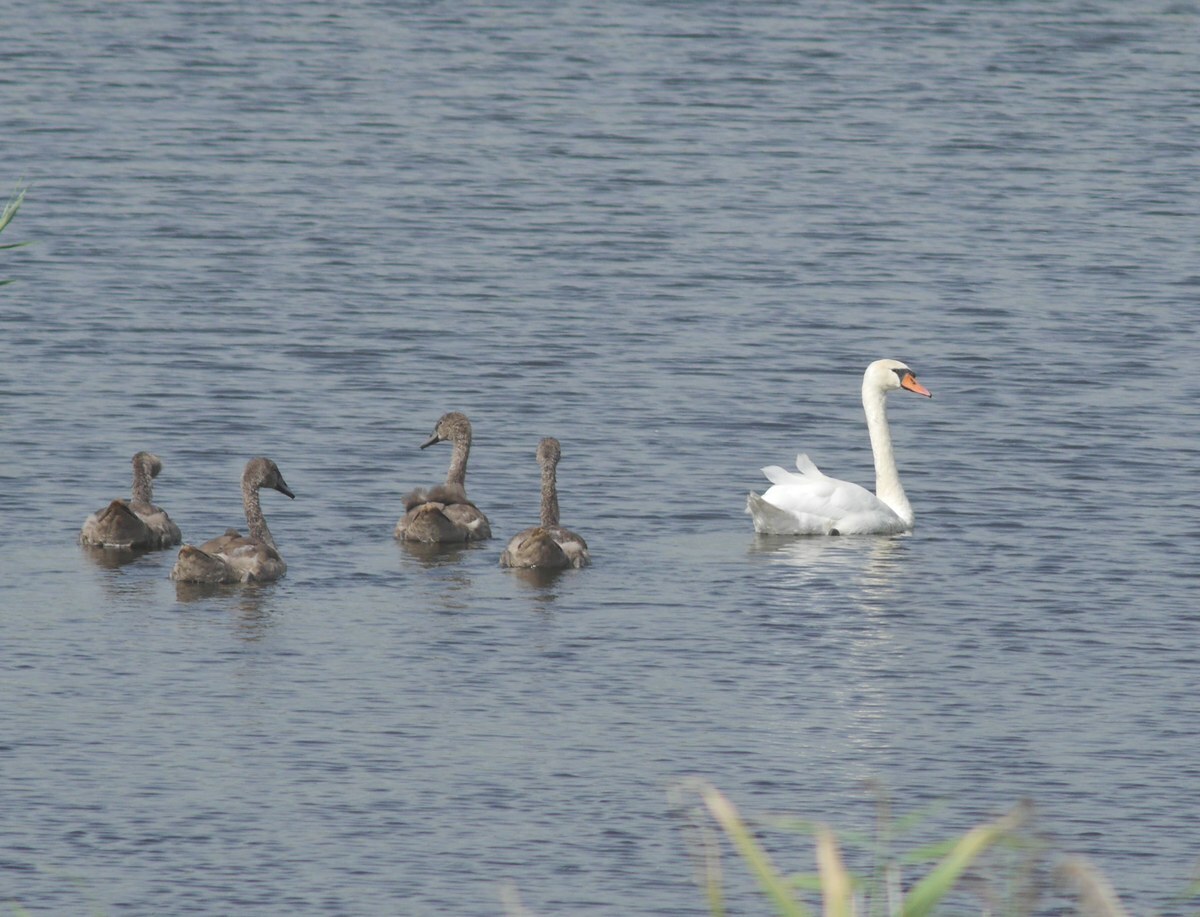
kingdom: Animalia
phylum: Chordata
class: Aves
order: Anseriformes
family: Anatidae
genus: Cygnus
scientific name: Cygnus olor
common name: Mute swan
